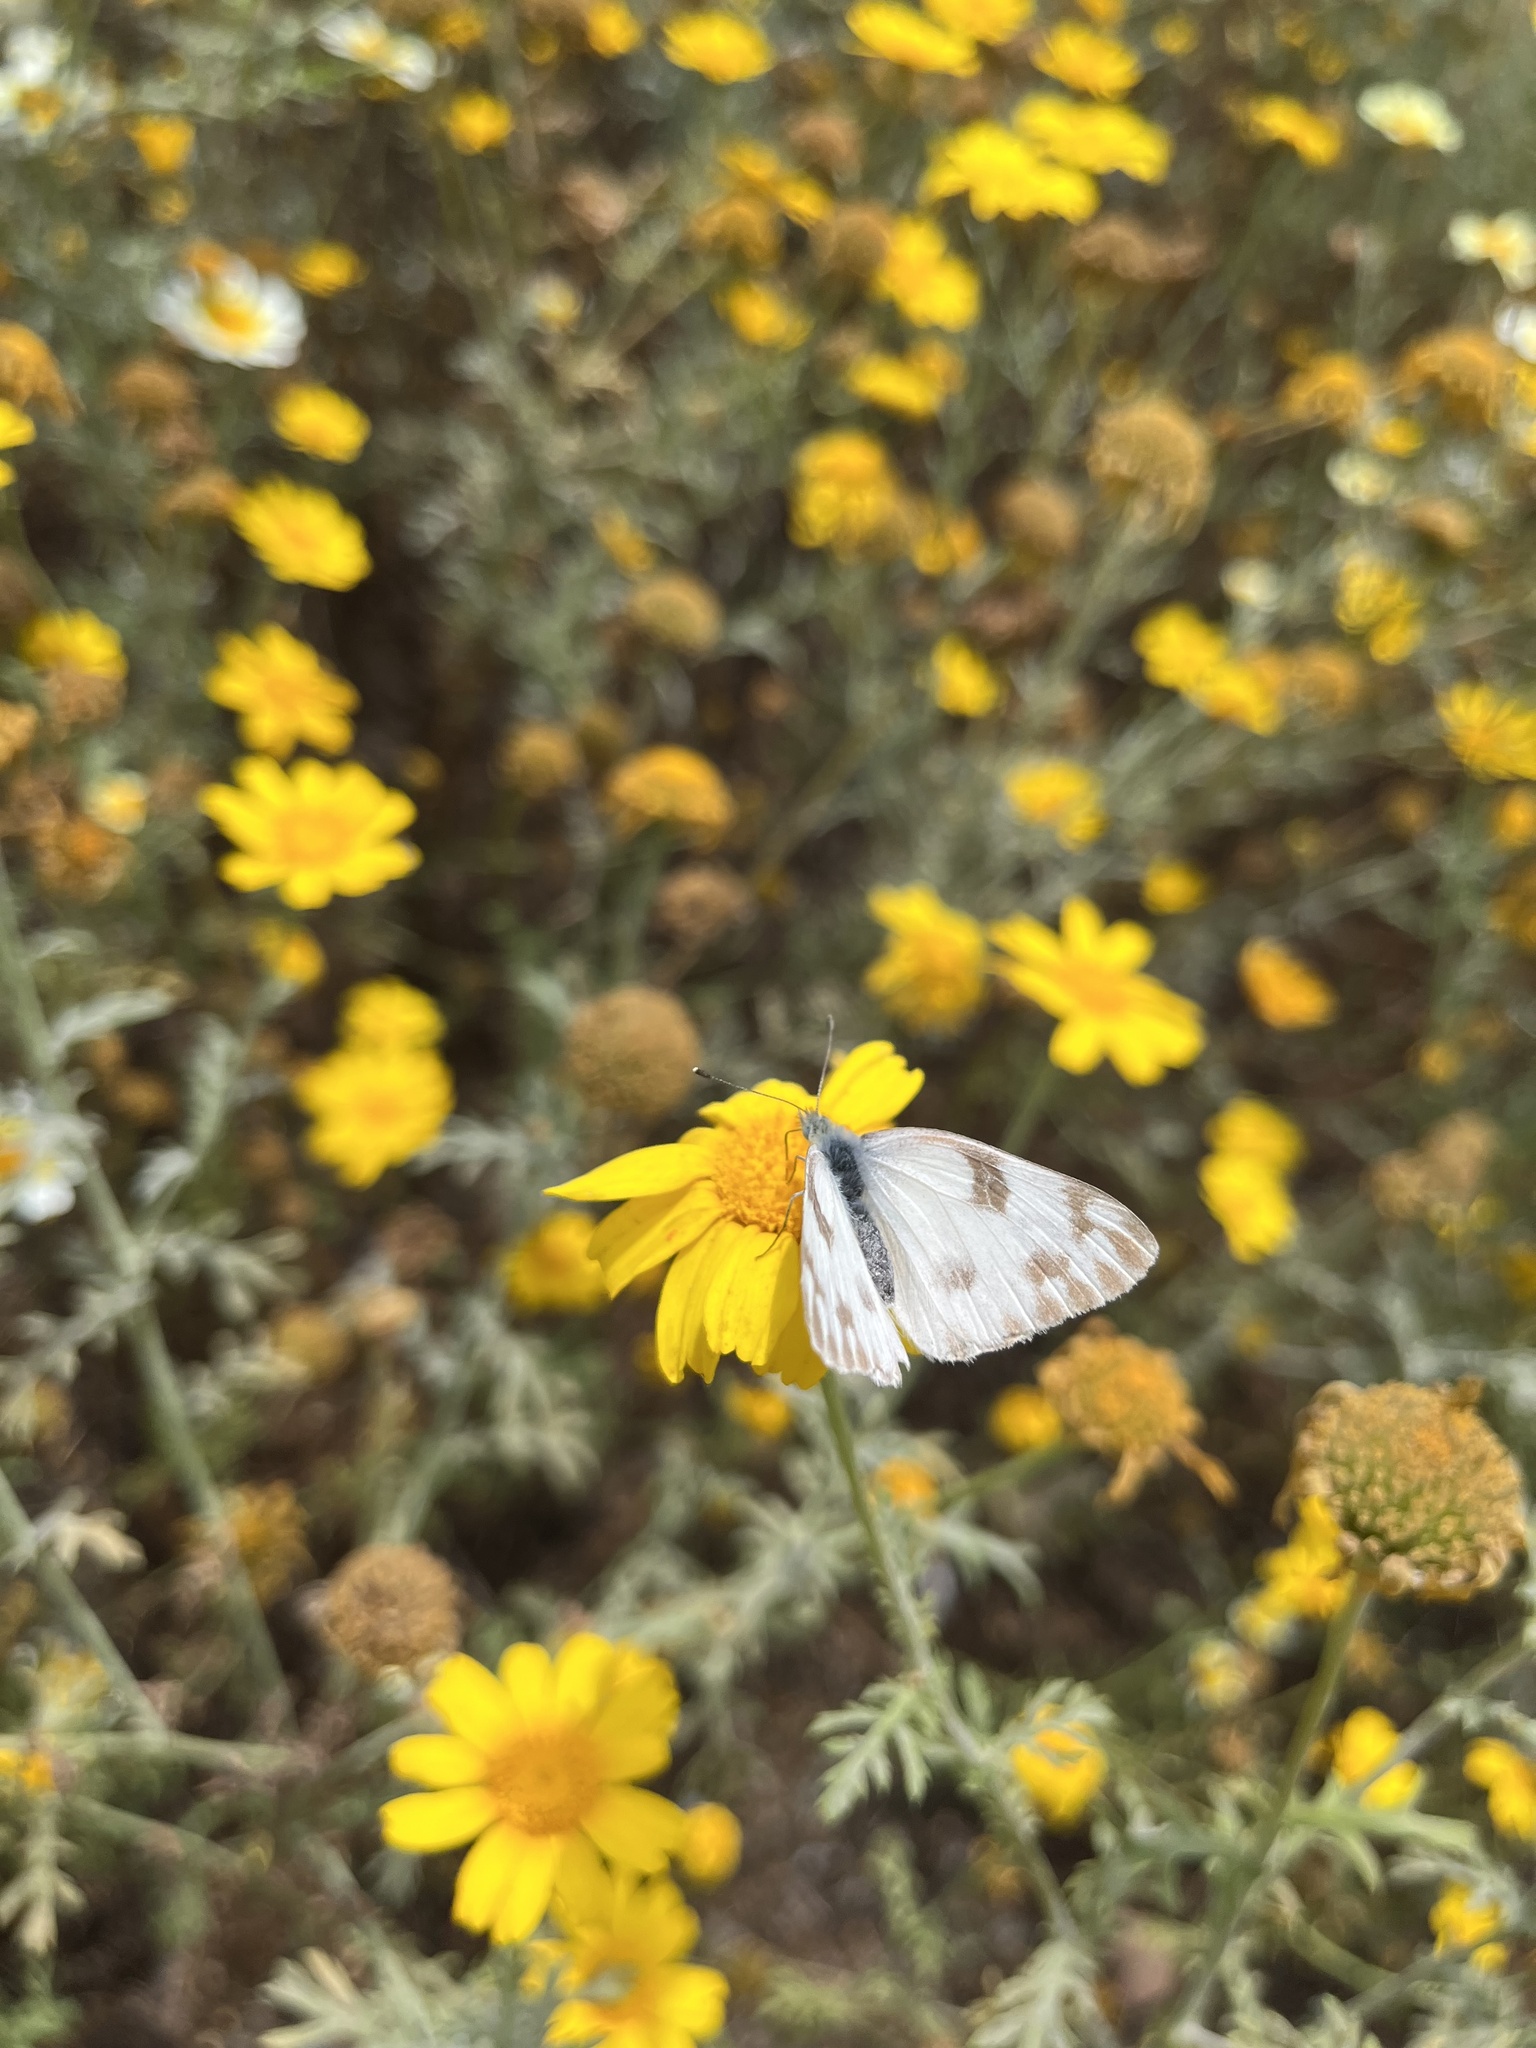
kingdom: Animalia
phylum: Arthropoda
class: Insecta
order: Lepidoptera
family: Pieridae
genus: Pontia
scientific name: Pontia protodice
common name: Checkered white
